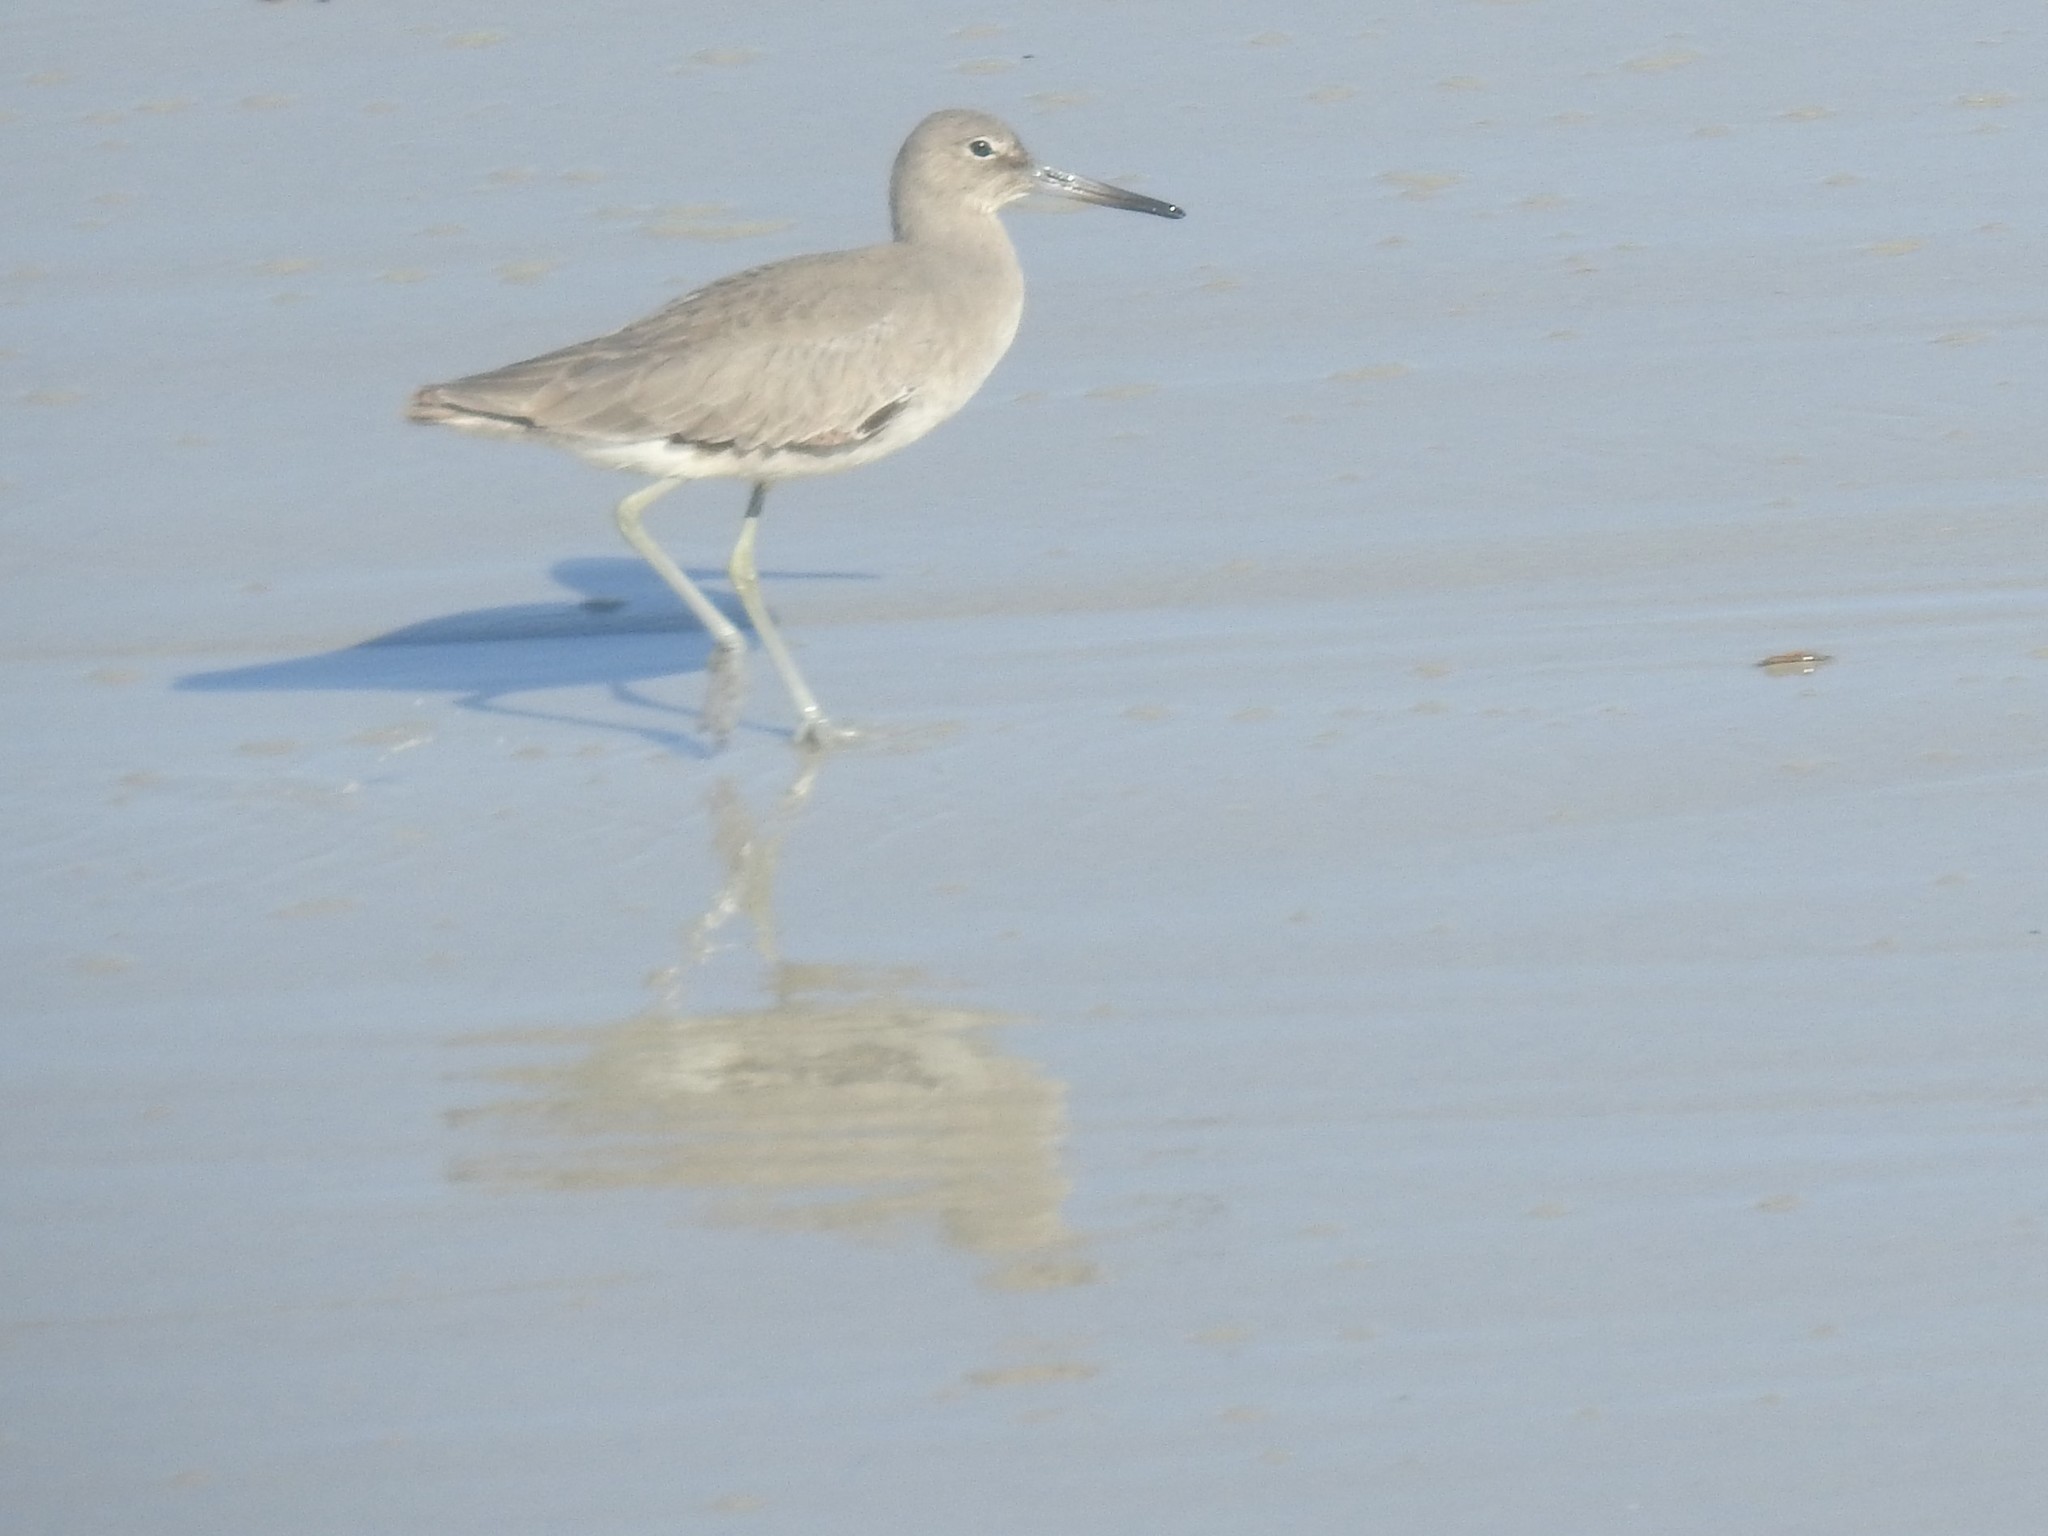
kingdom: Animalia
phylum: Chordata
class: Aves
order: Charadriiformes
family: Scolopacidae
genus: Tringa
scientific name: Tringa semipalmata
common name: Willet
